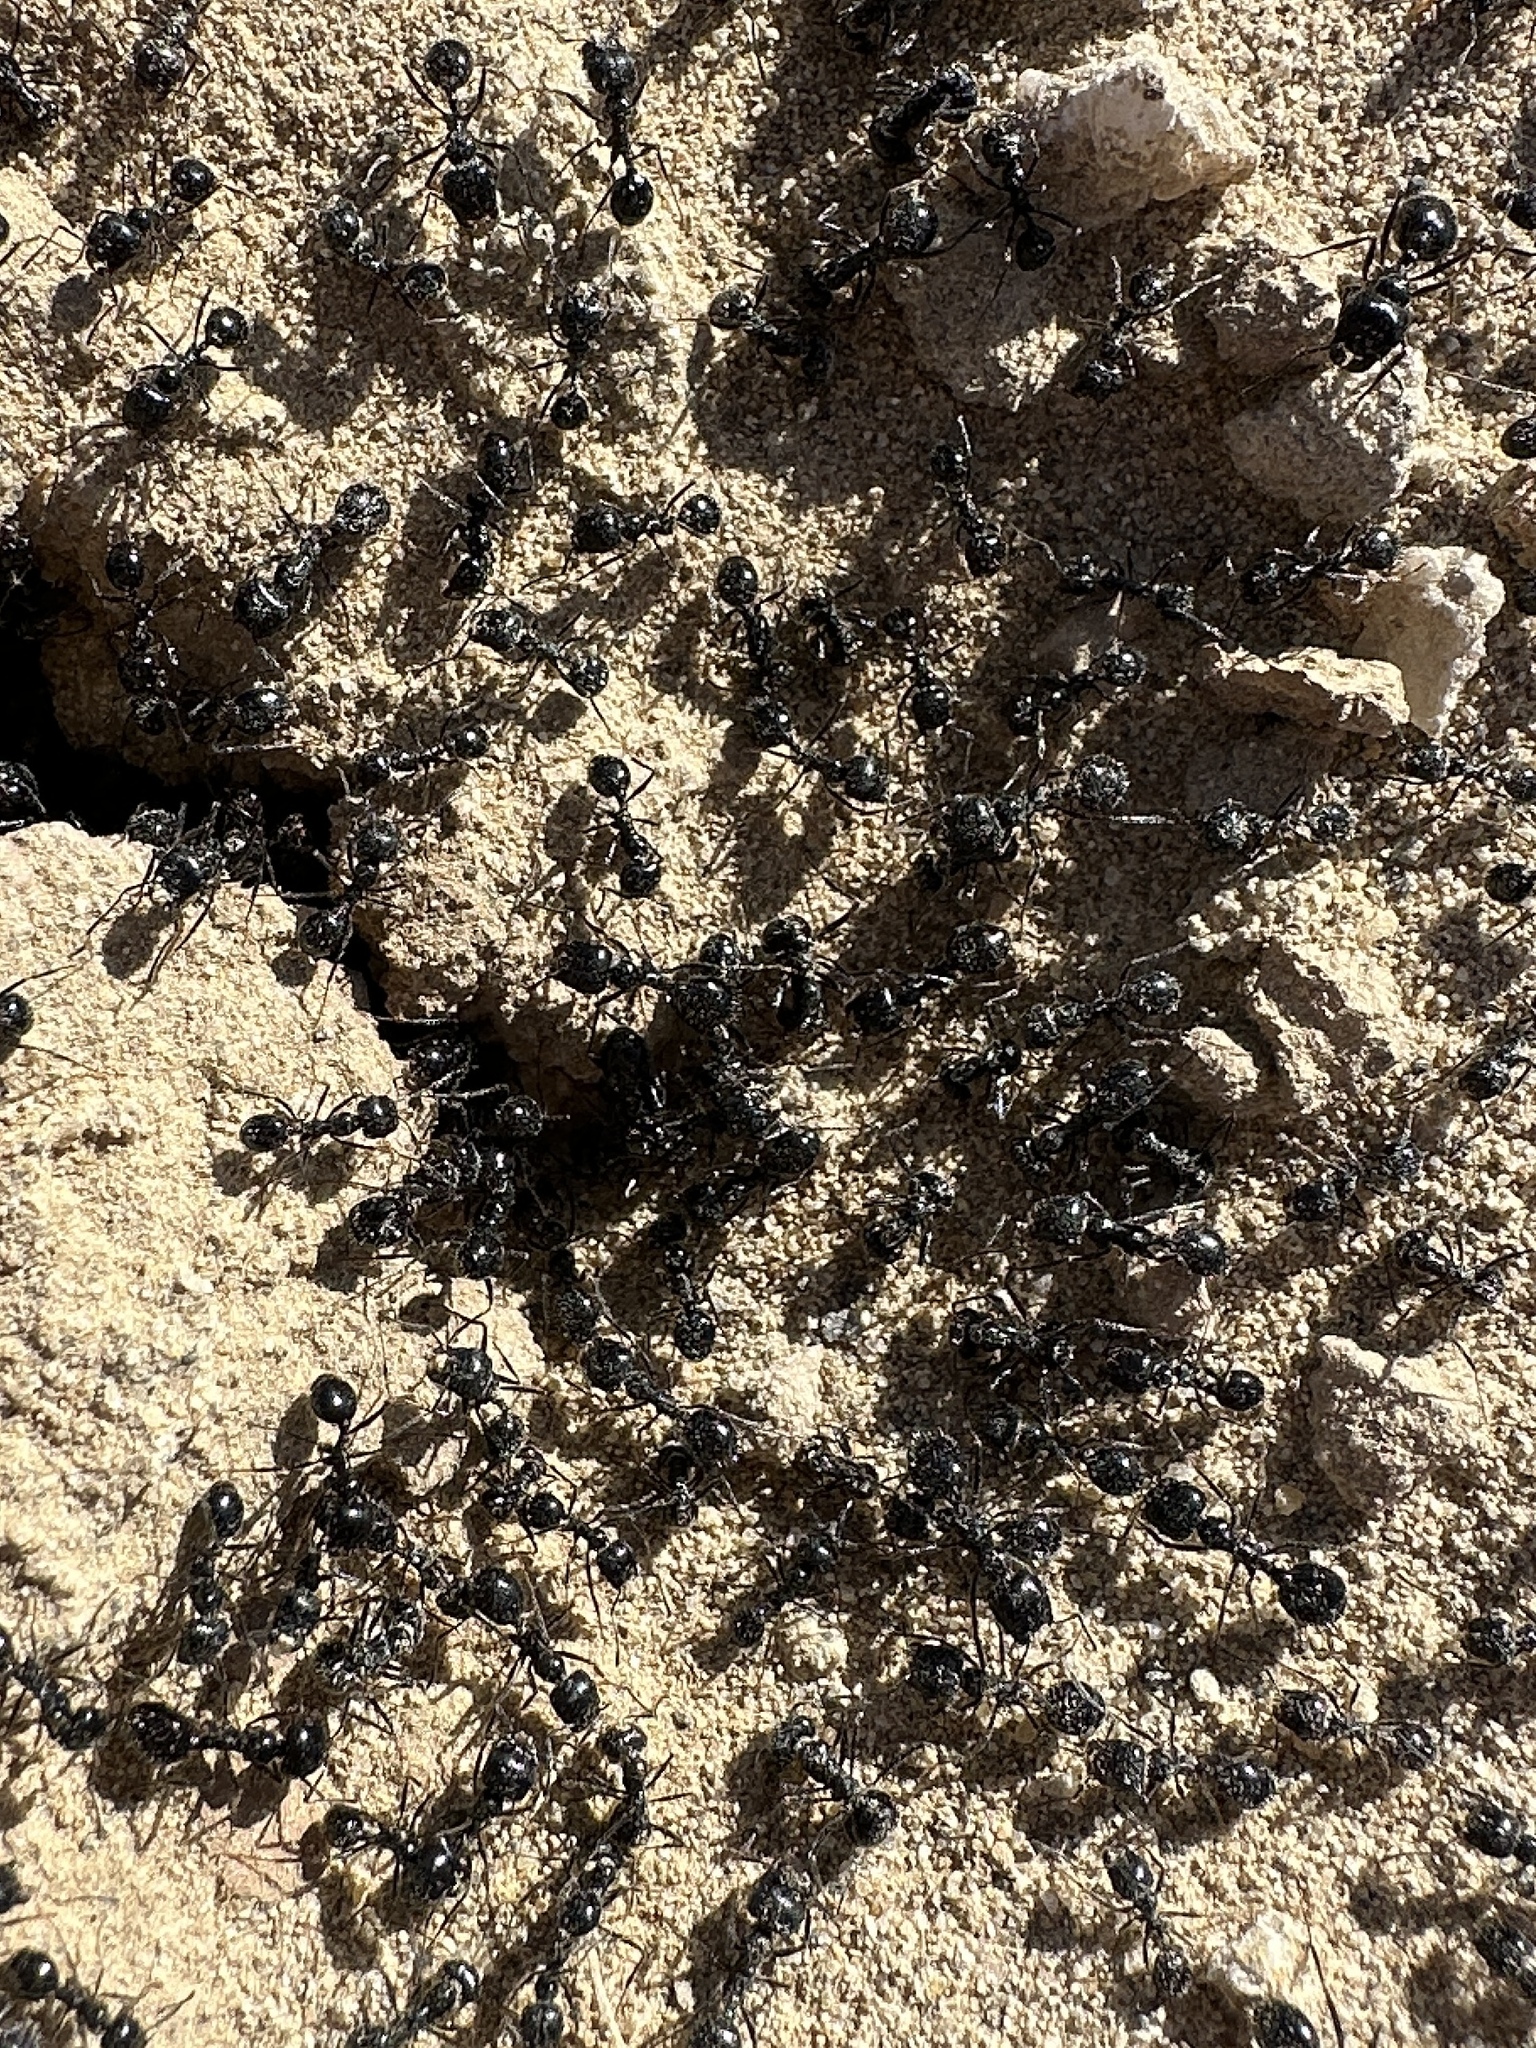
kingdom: Animalia
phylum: Arthropoda
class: Insecta
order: Hymenoptera
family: Formicidae
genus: Messor
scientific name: Messor pergandei
